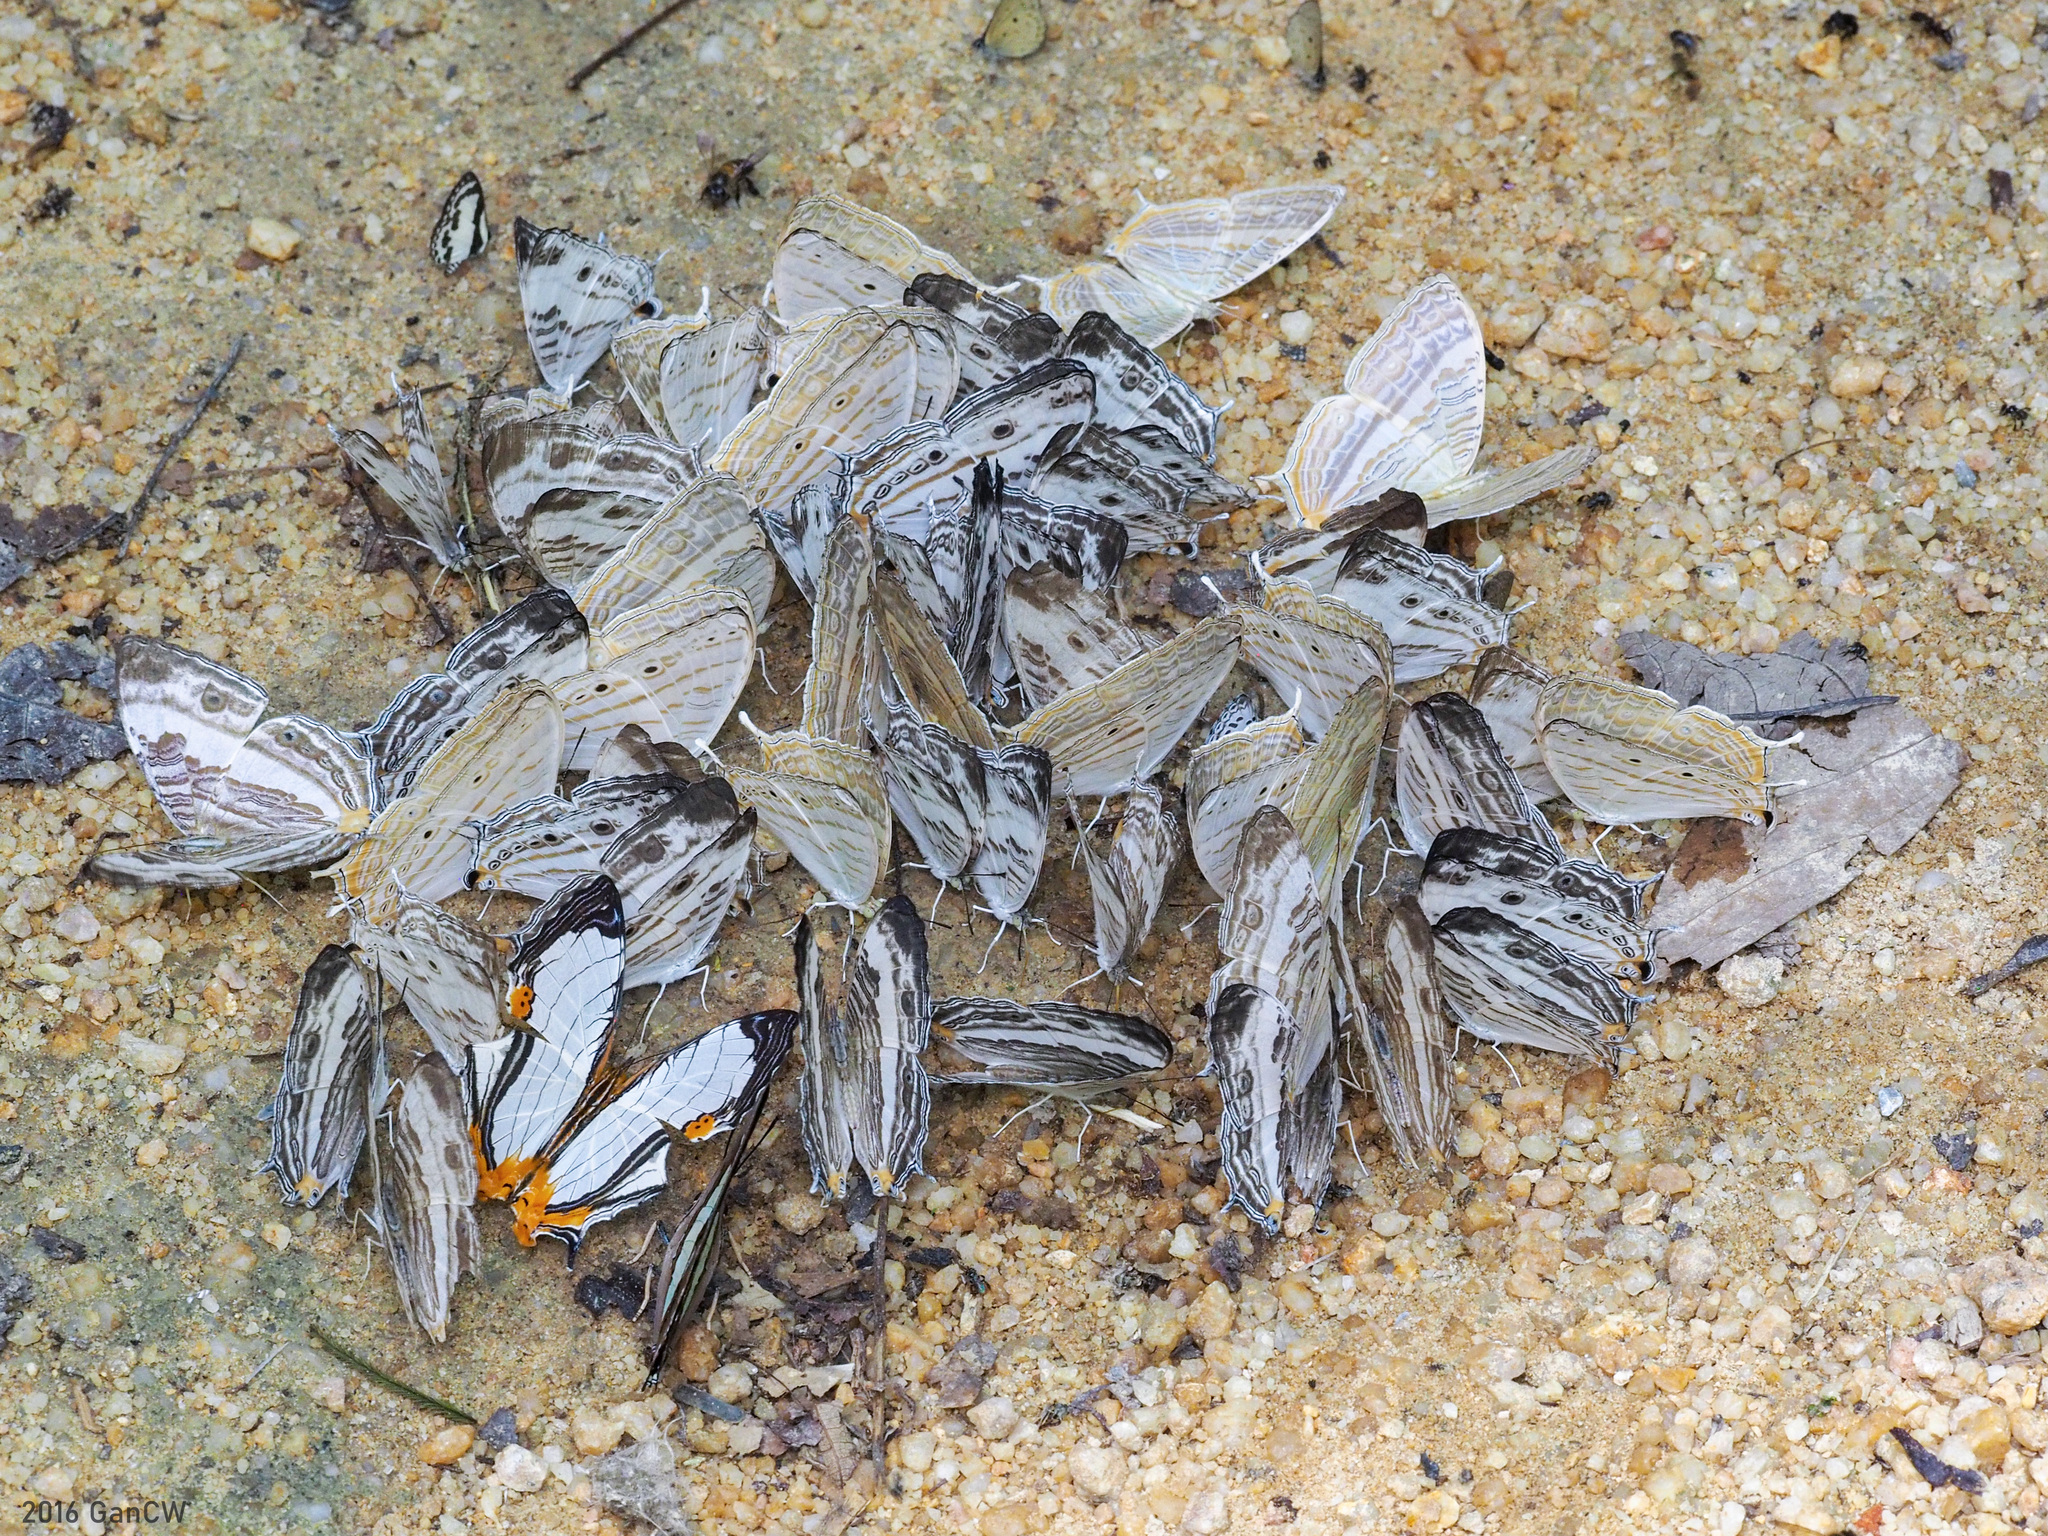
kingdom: Animalia
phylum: Arthropoda
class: Insecta
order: Lepidoptera
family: Nymphalidae
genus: Cyrestis
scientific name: Cyrestis cocles
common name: Marbled map
